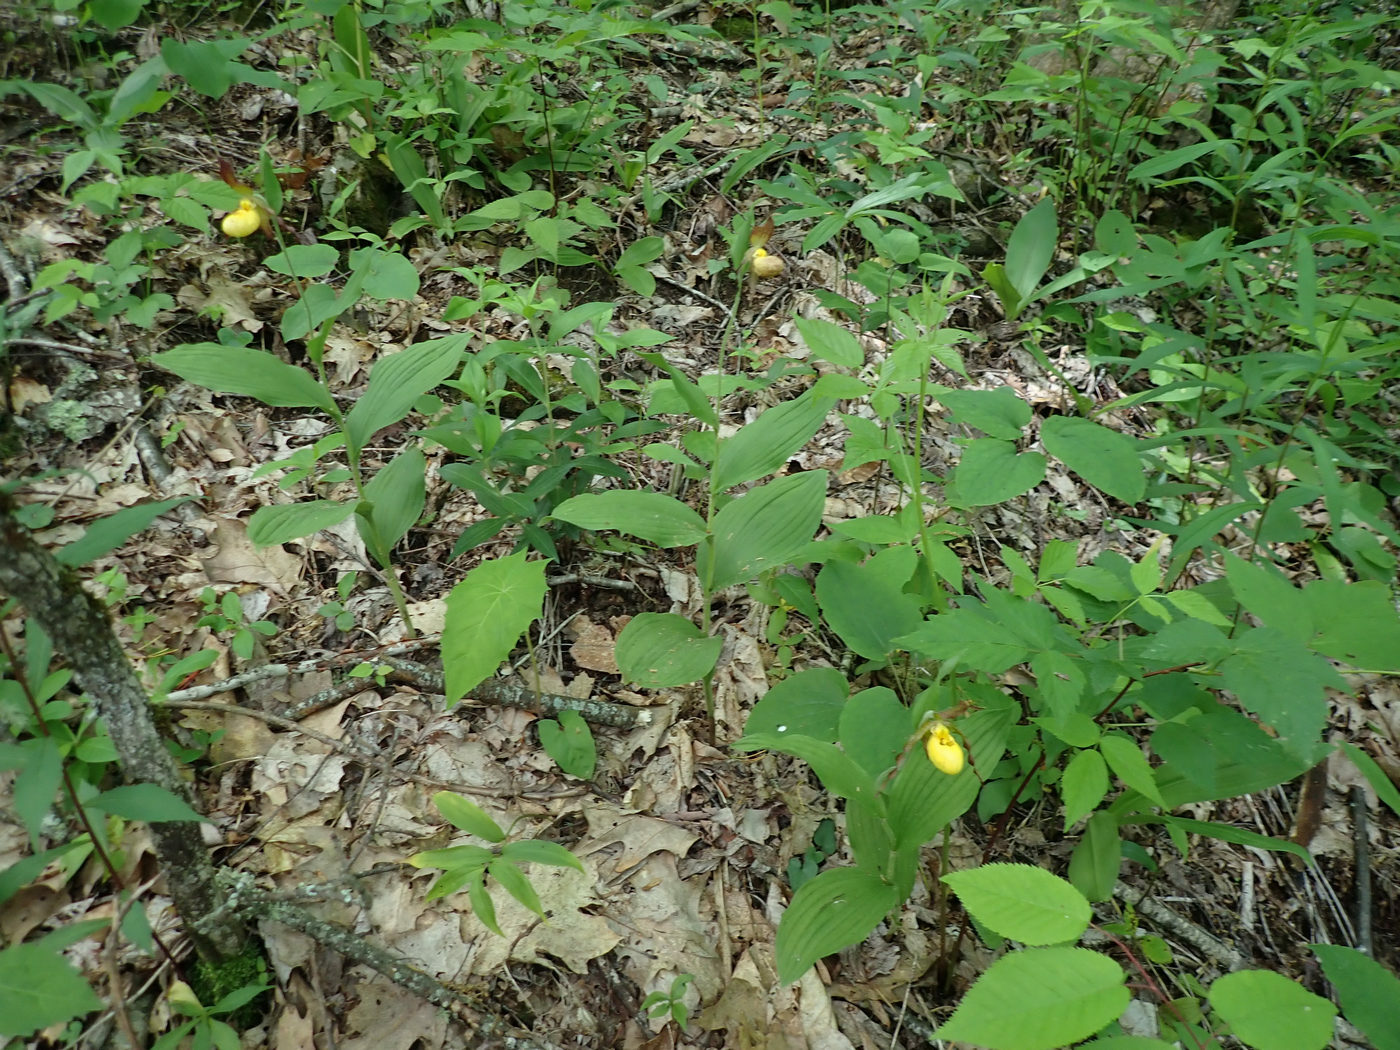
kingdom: Plantae
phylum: Tracheophyta
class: Liliopsida
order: Asparagales
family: Orchidaceae
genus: Cypripedium
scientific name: Cypripedium parviflorum
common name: American yellow lady's-slipper
